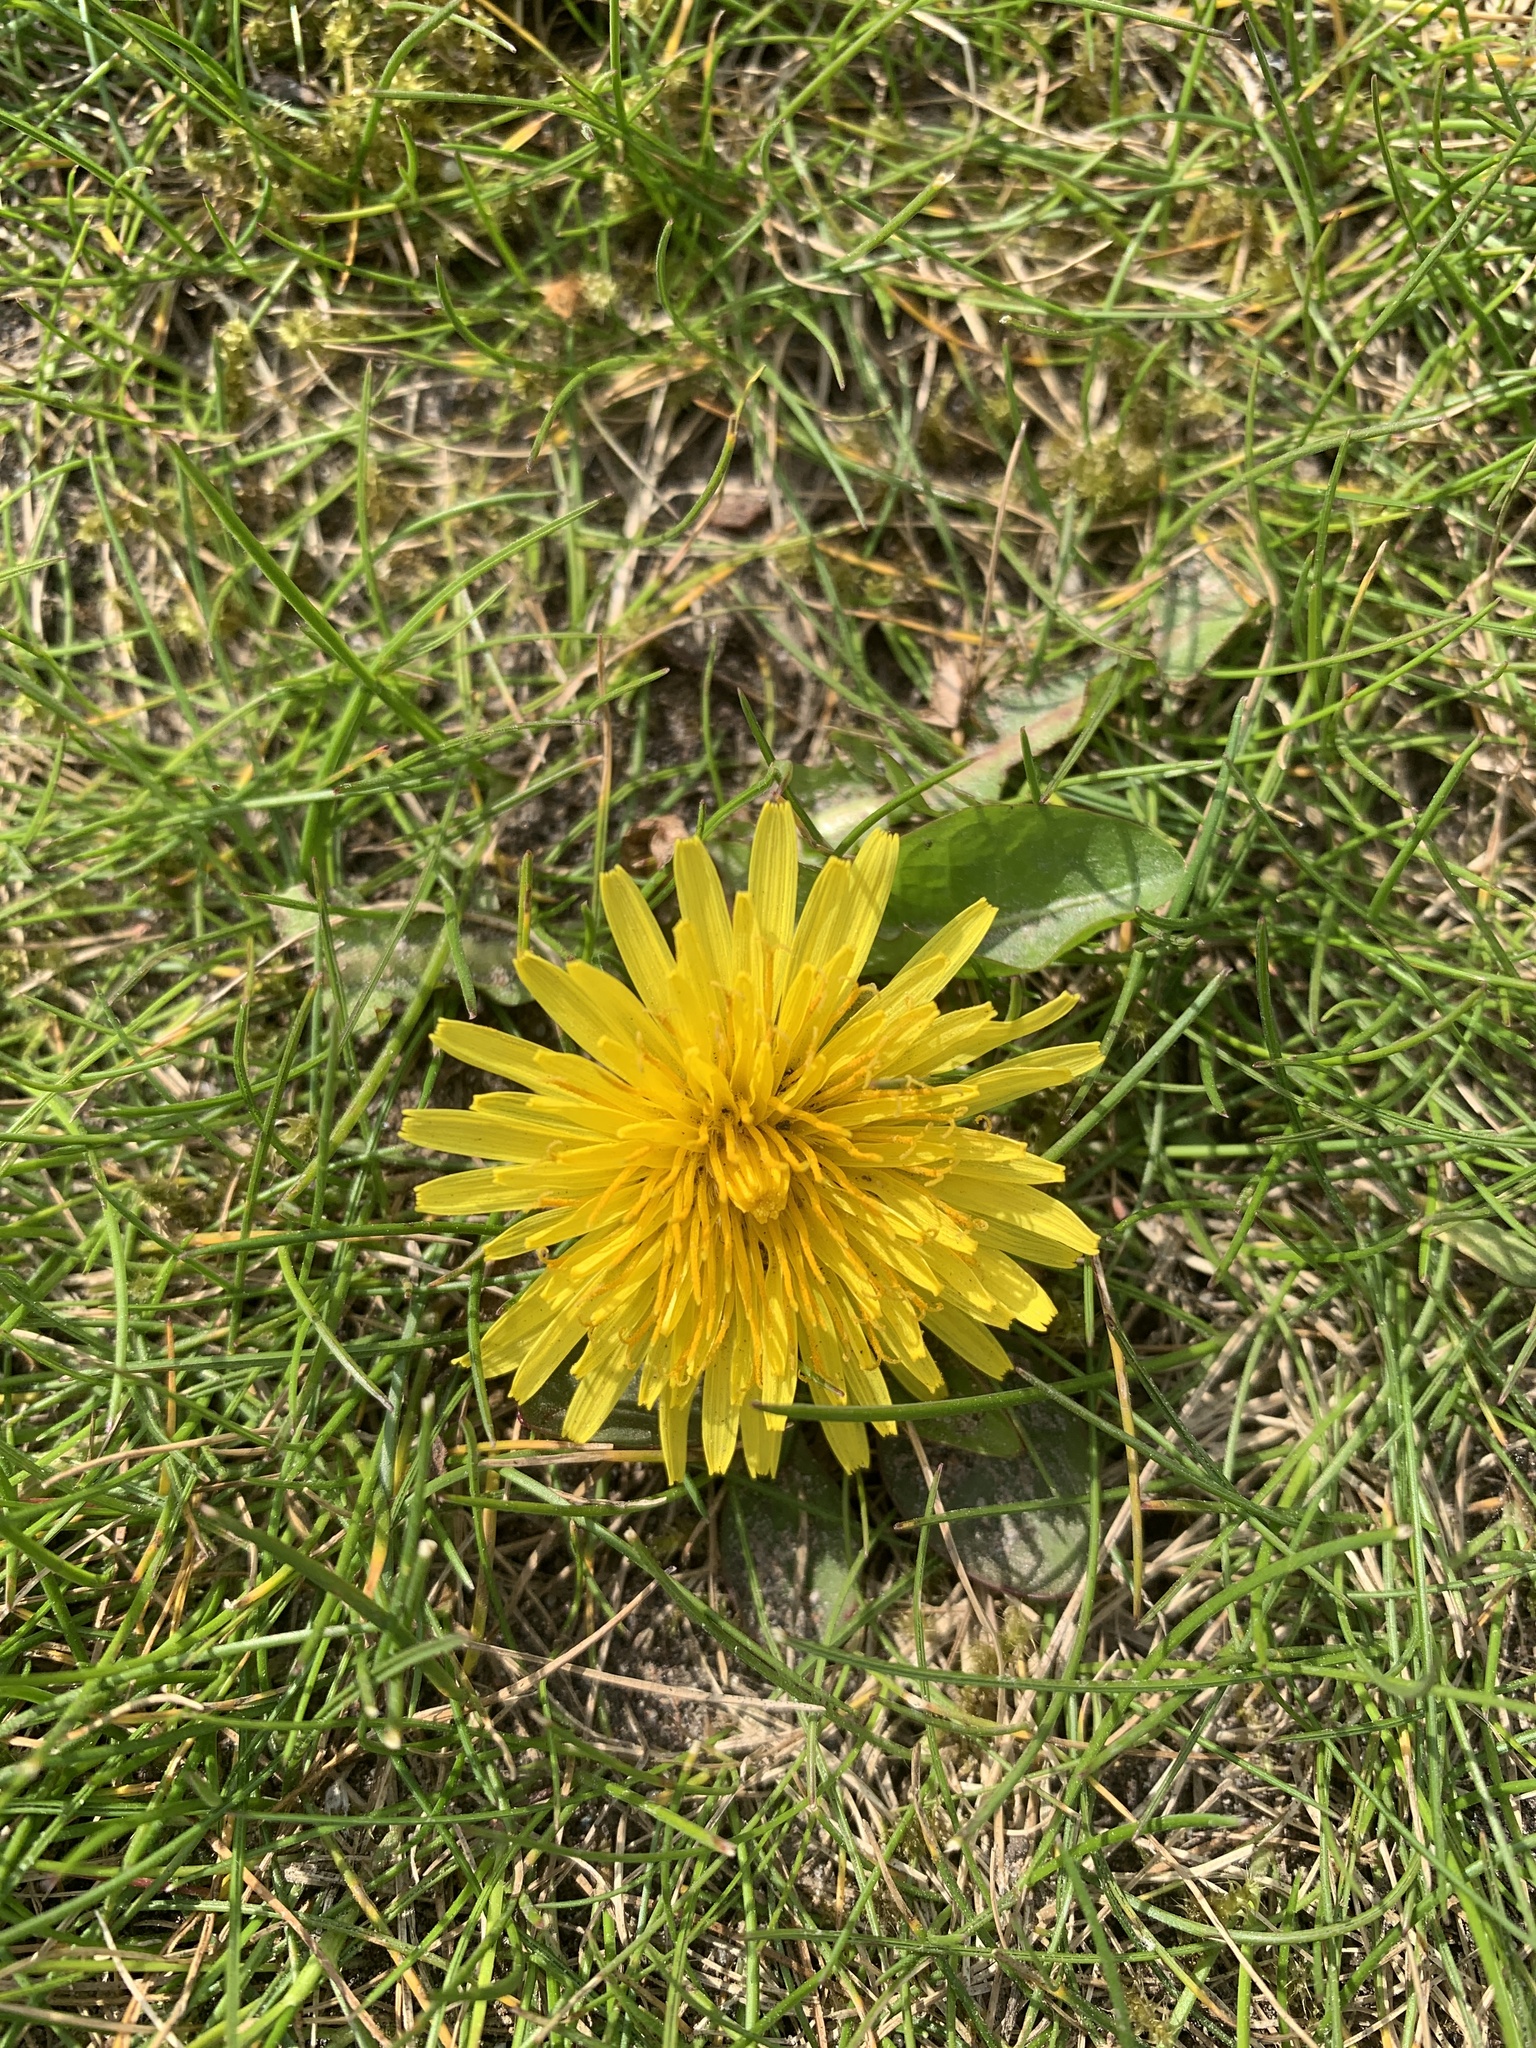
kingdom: Plantae
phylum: Tracheophyta
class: Magnoliopsida
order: Asterales
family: Asteraceae
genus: Taraxacum
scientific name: Taraxacum officinale
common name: Common dandelion
